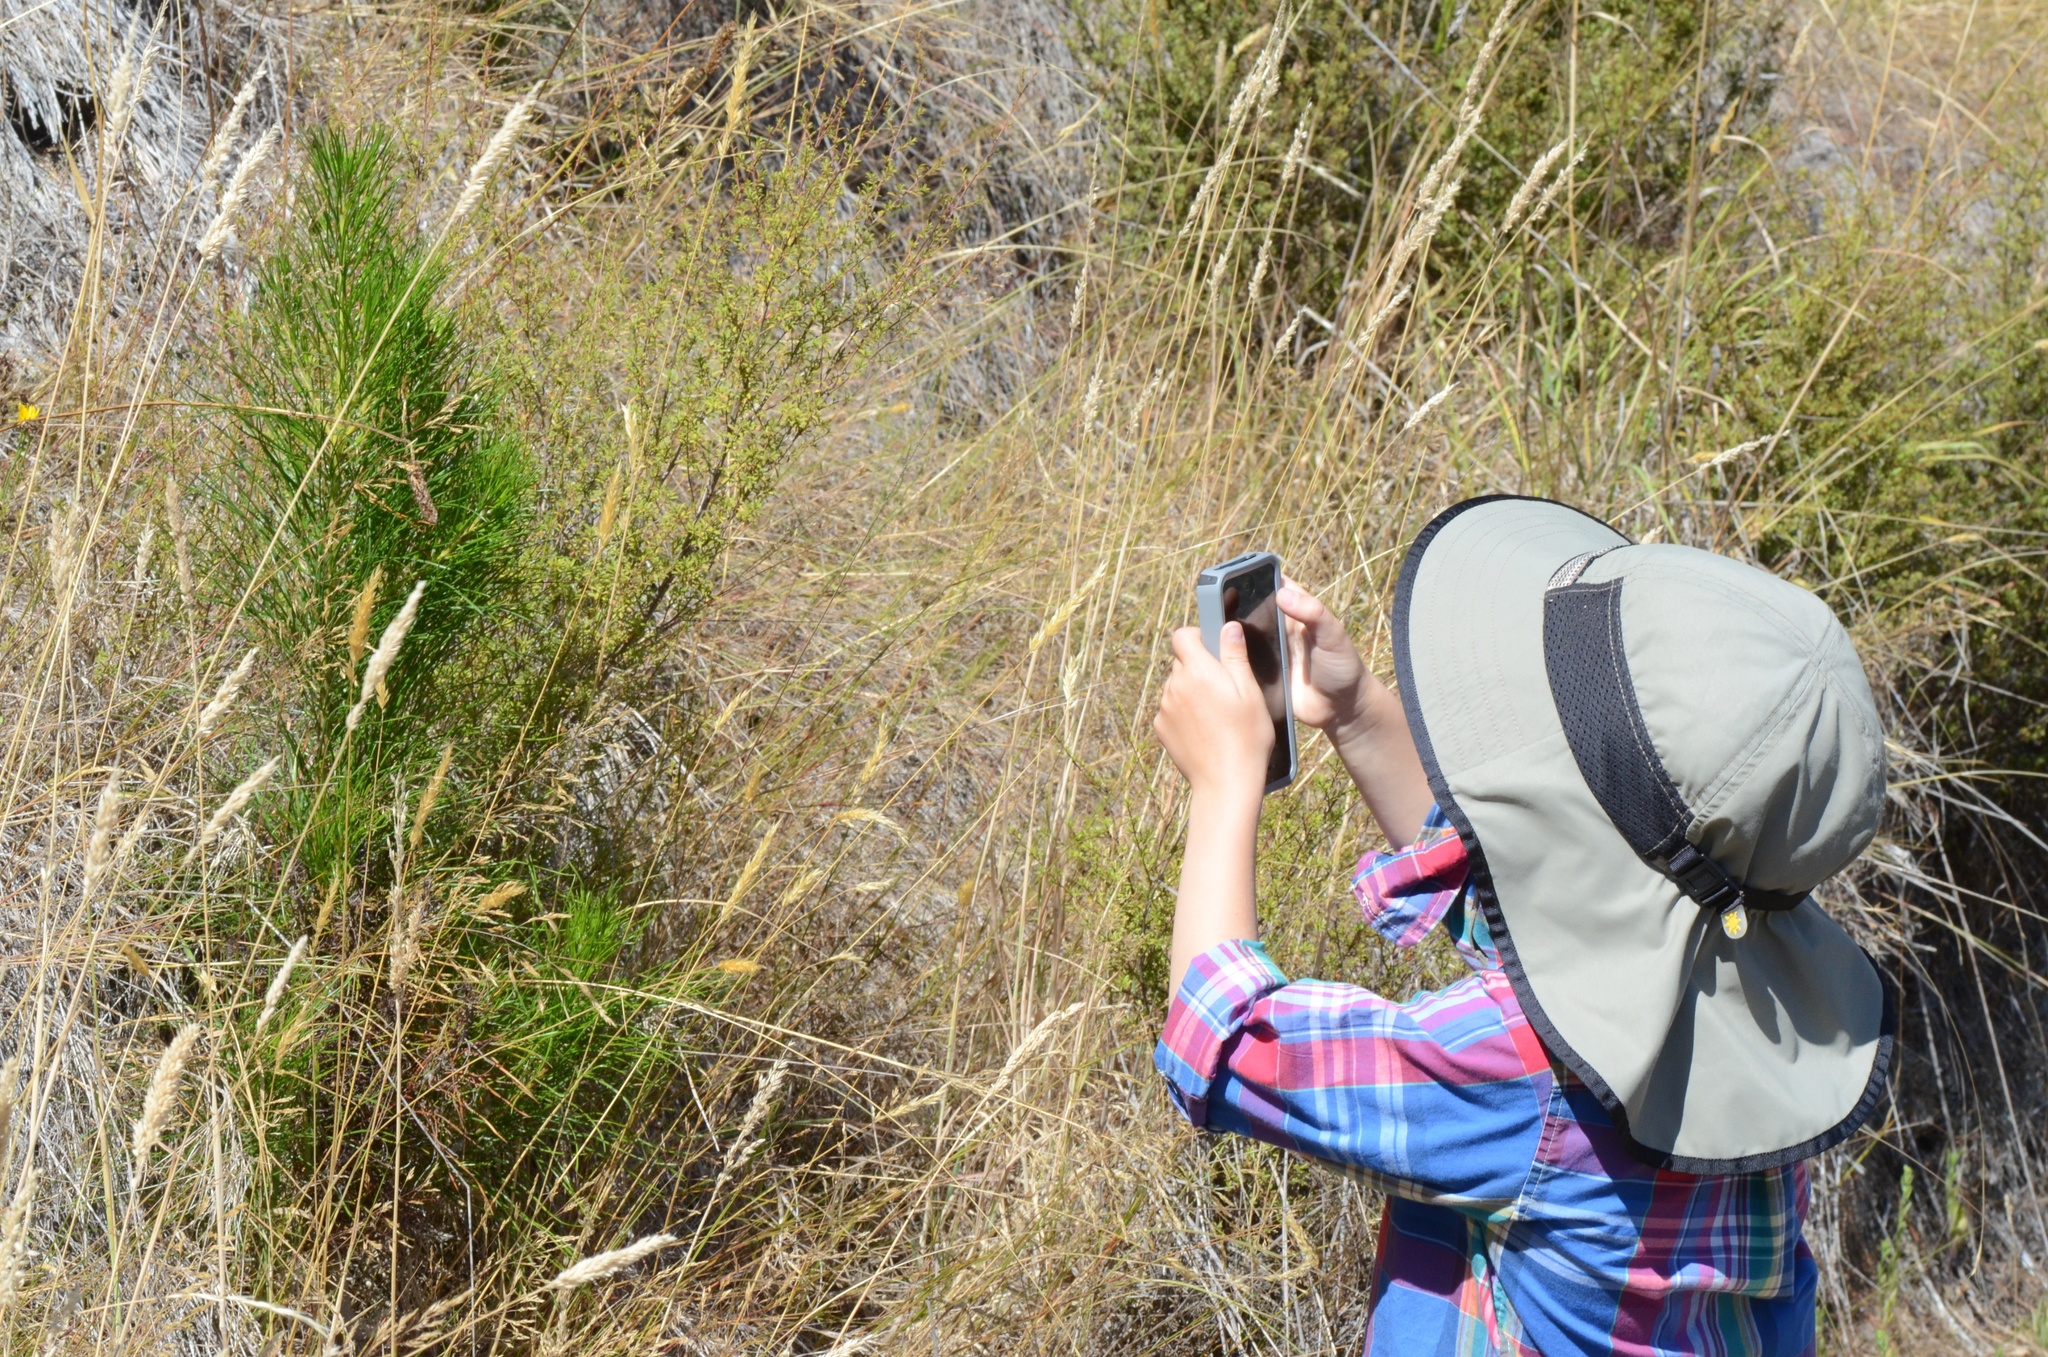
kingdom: Plantae
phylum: Tracheophyta
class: Pinopsida
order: Pinales
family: Pinaceae
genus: Pinus
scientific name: Pinus radiata
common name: Monterey pine
